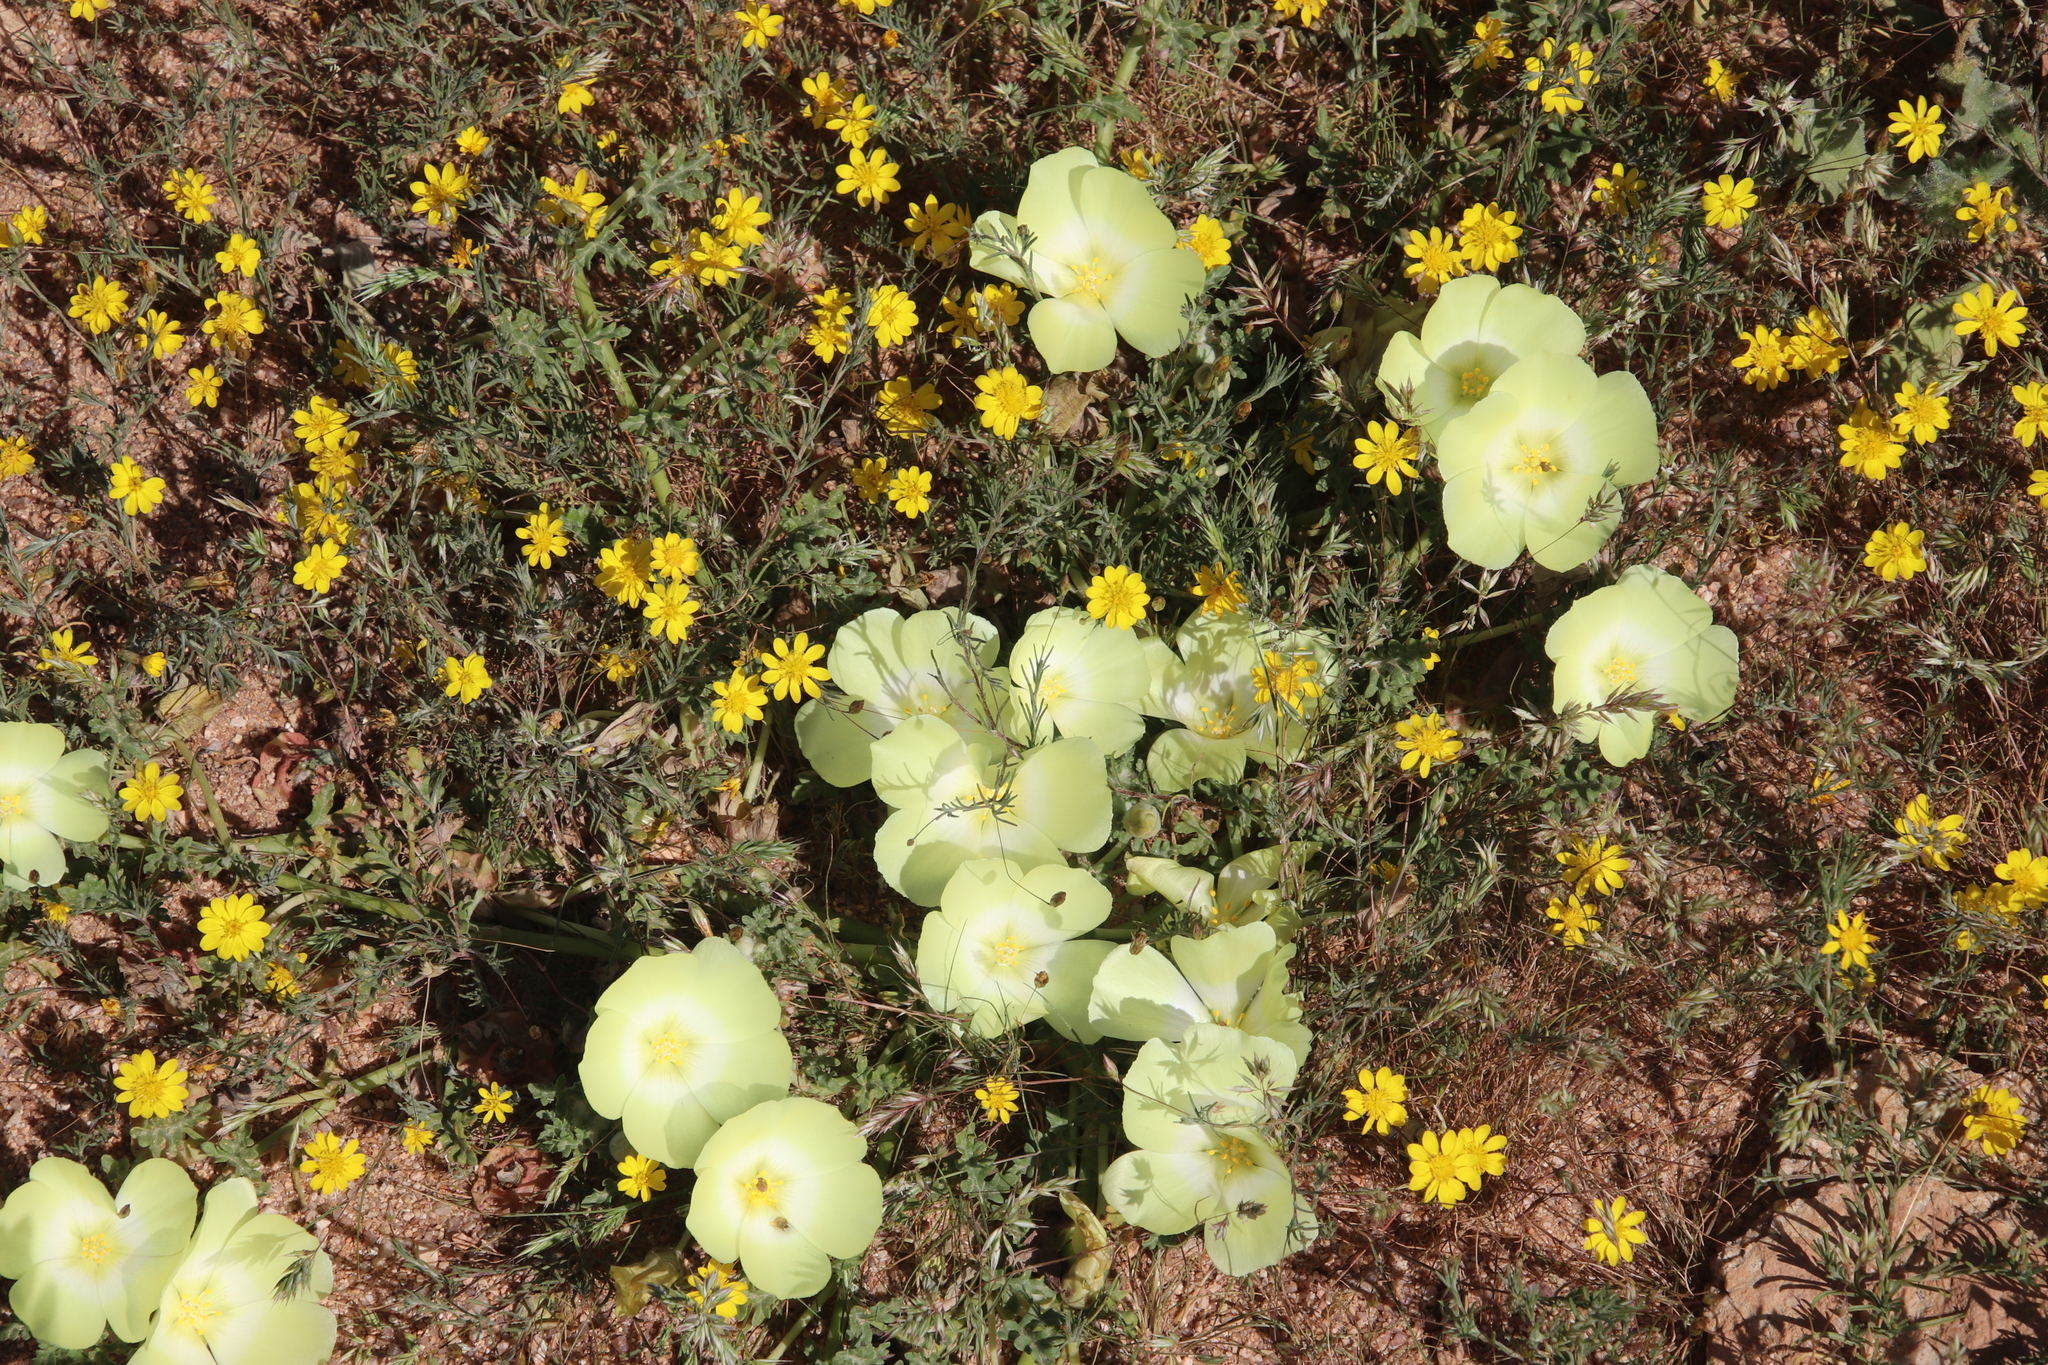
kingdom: Plantae
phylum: Tracheophyta
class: Magnoliopsida
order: Malvales
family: Neuradaceae
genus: Grielum
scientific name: Grielum humifusum
